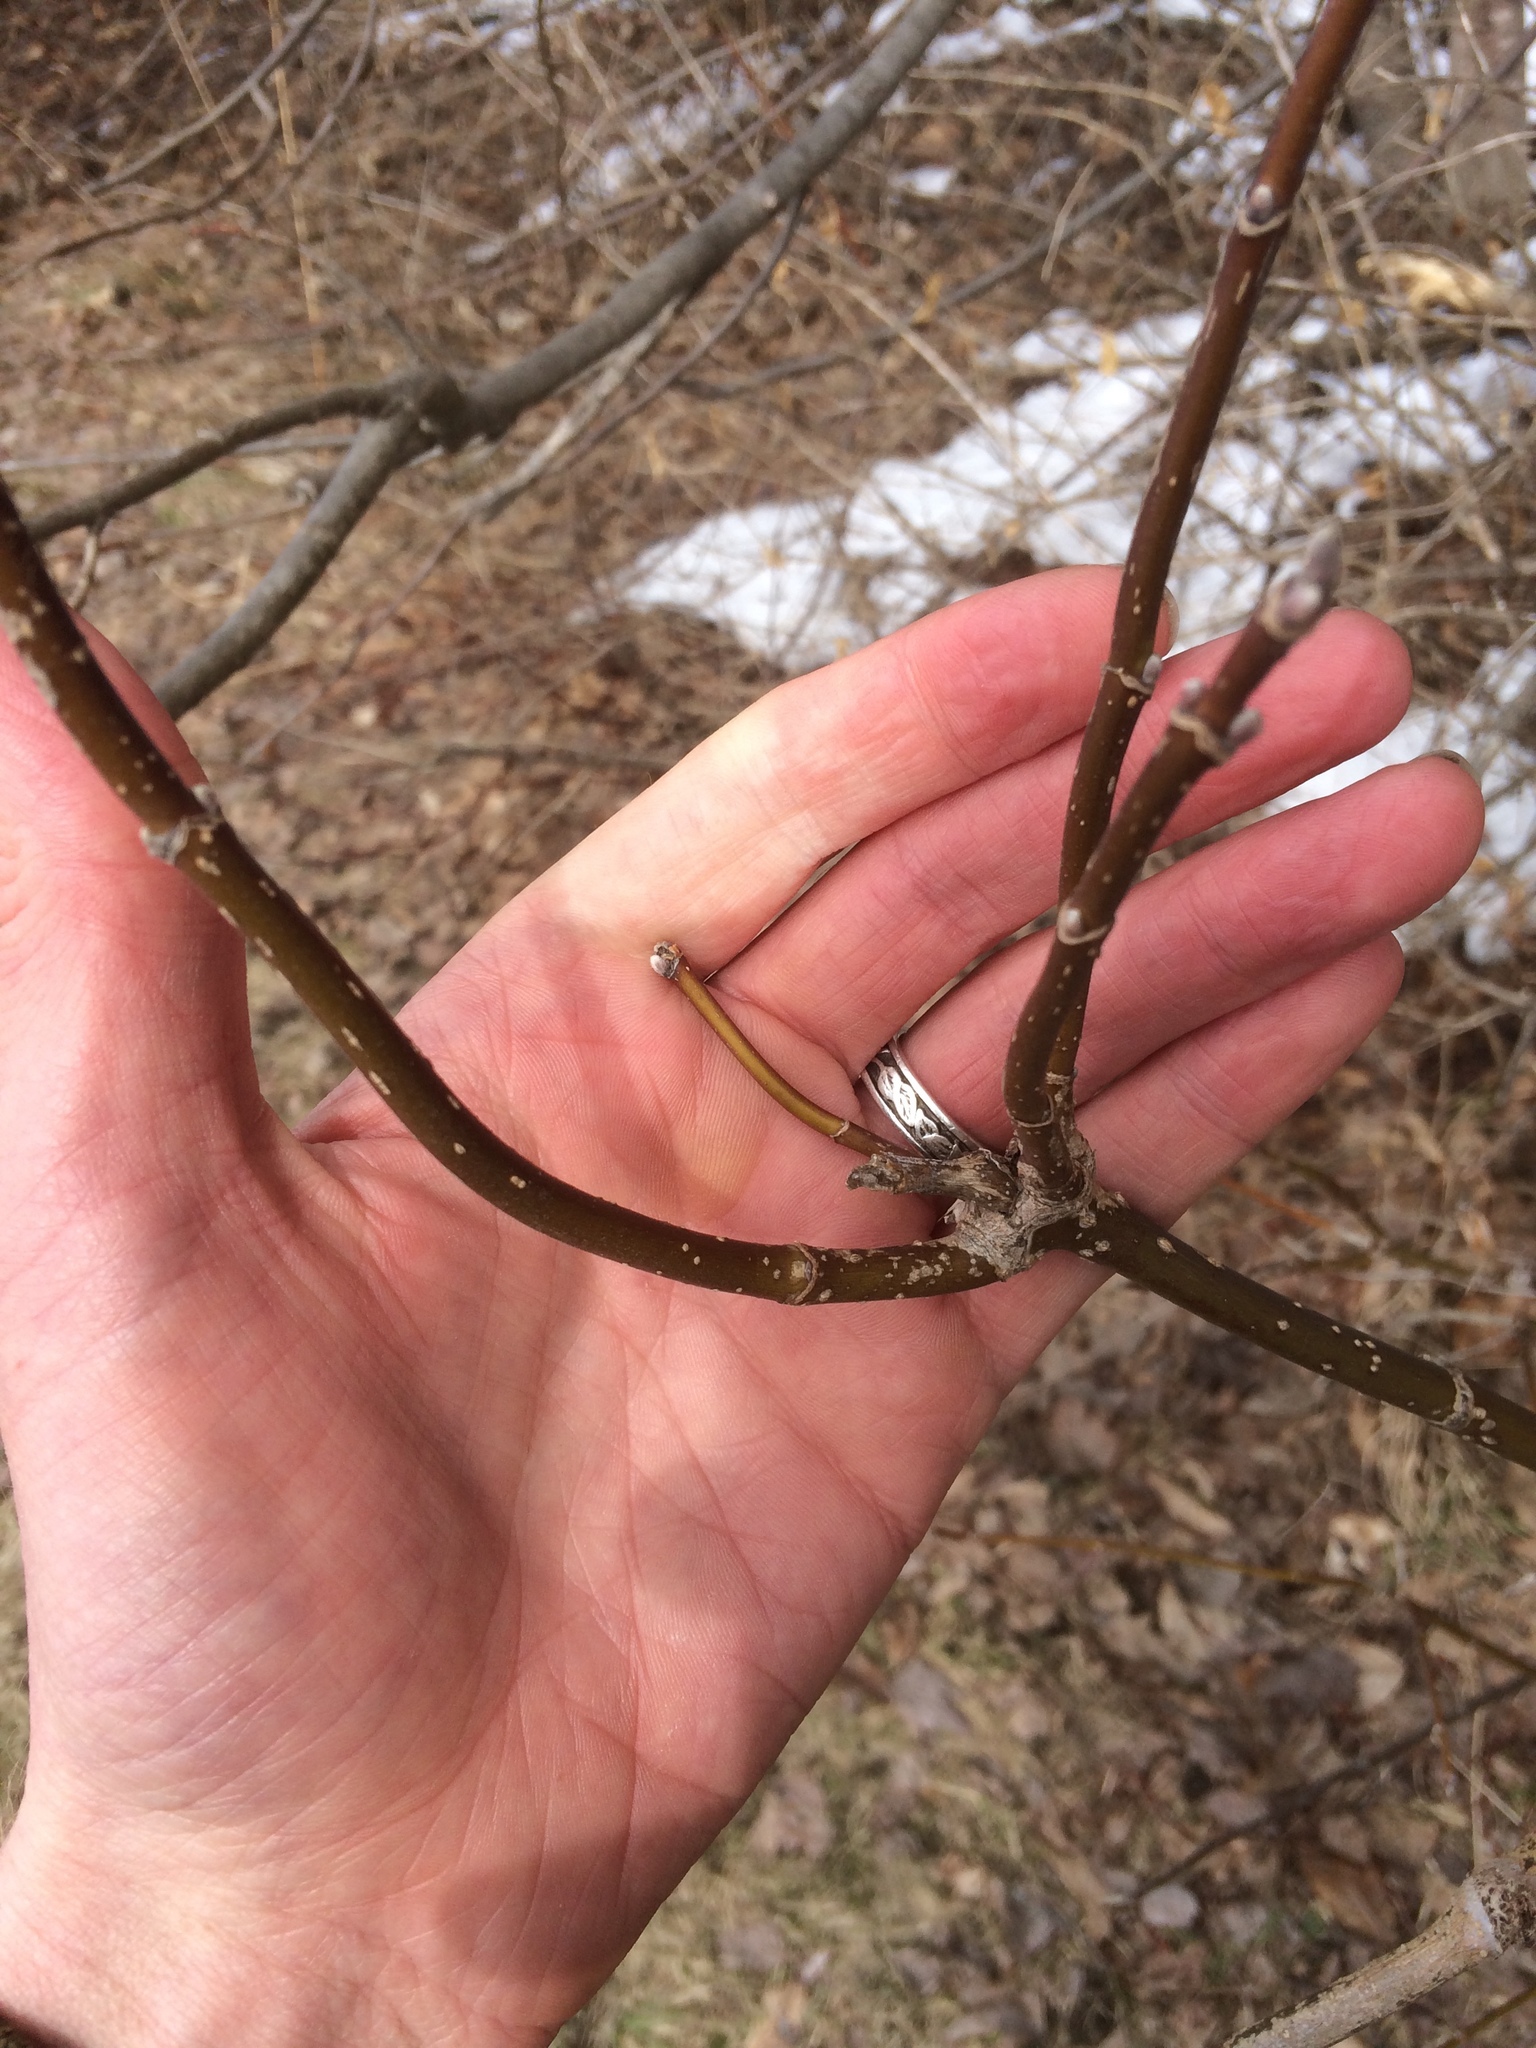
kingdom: Plantae
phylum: Tracheophyta
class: Magnoliopsida
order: Sapindales
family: Sapindaceae
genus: Acer
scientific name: Acer negundo
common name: Ashleaf maple
